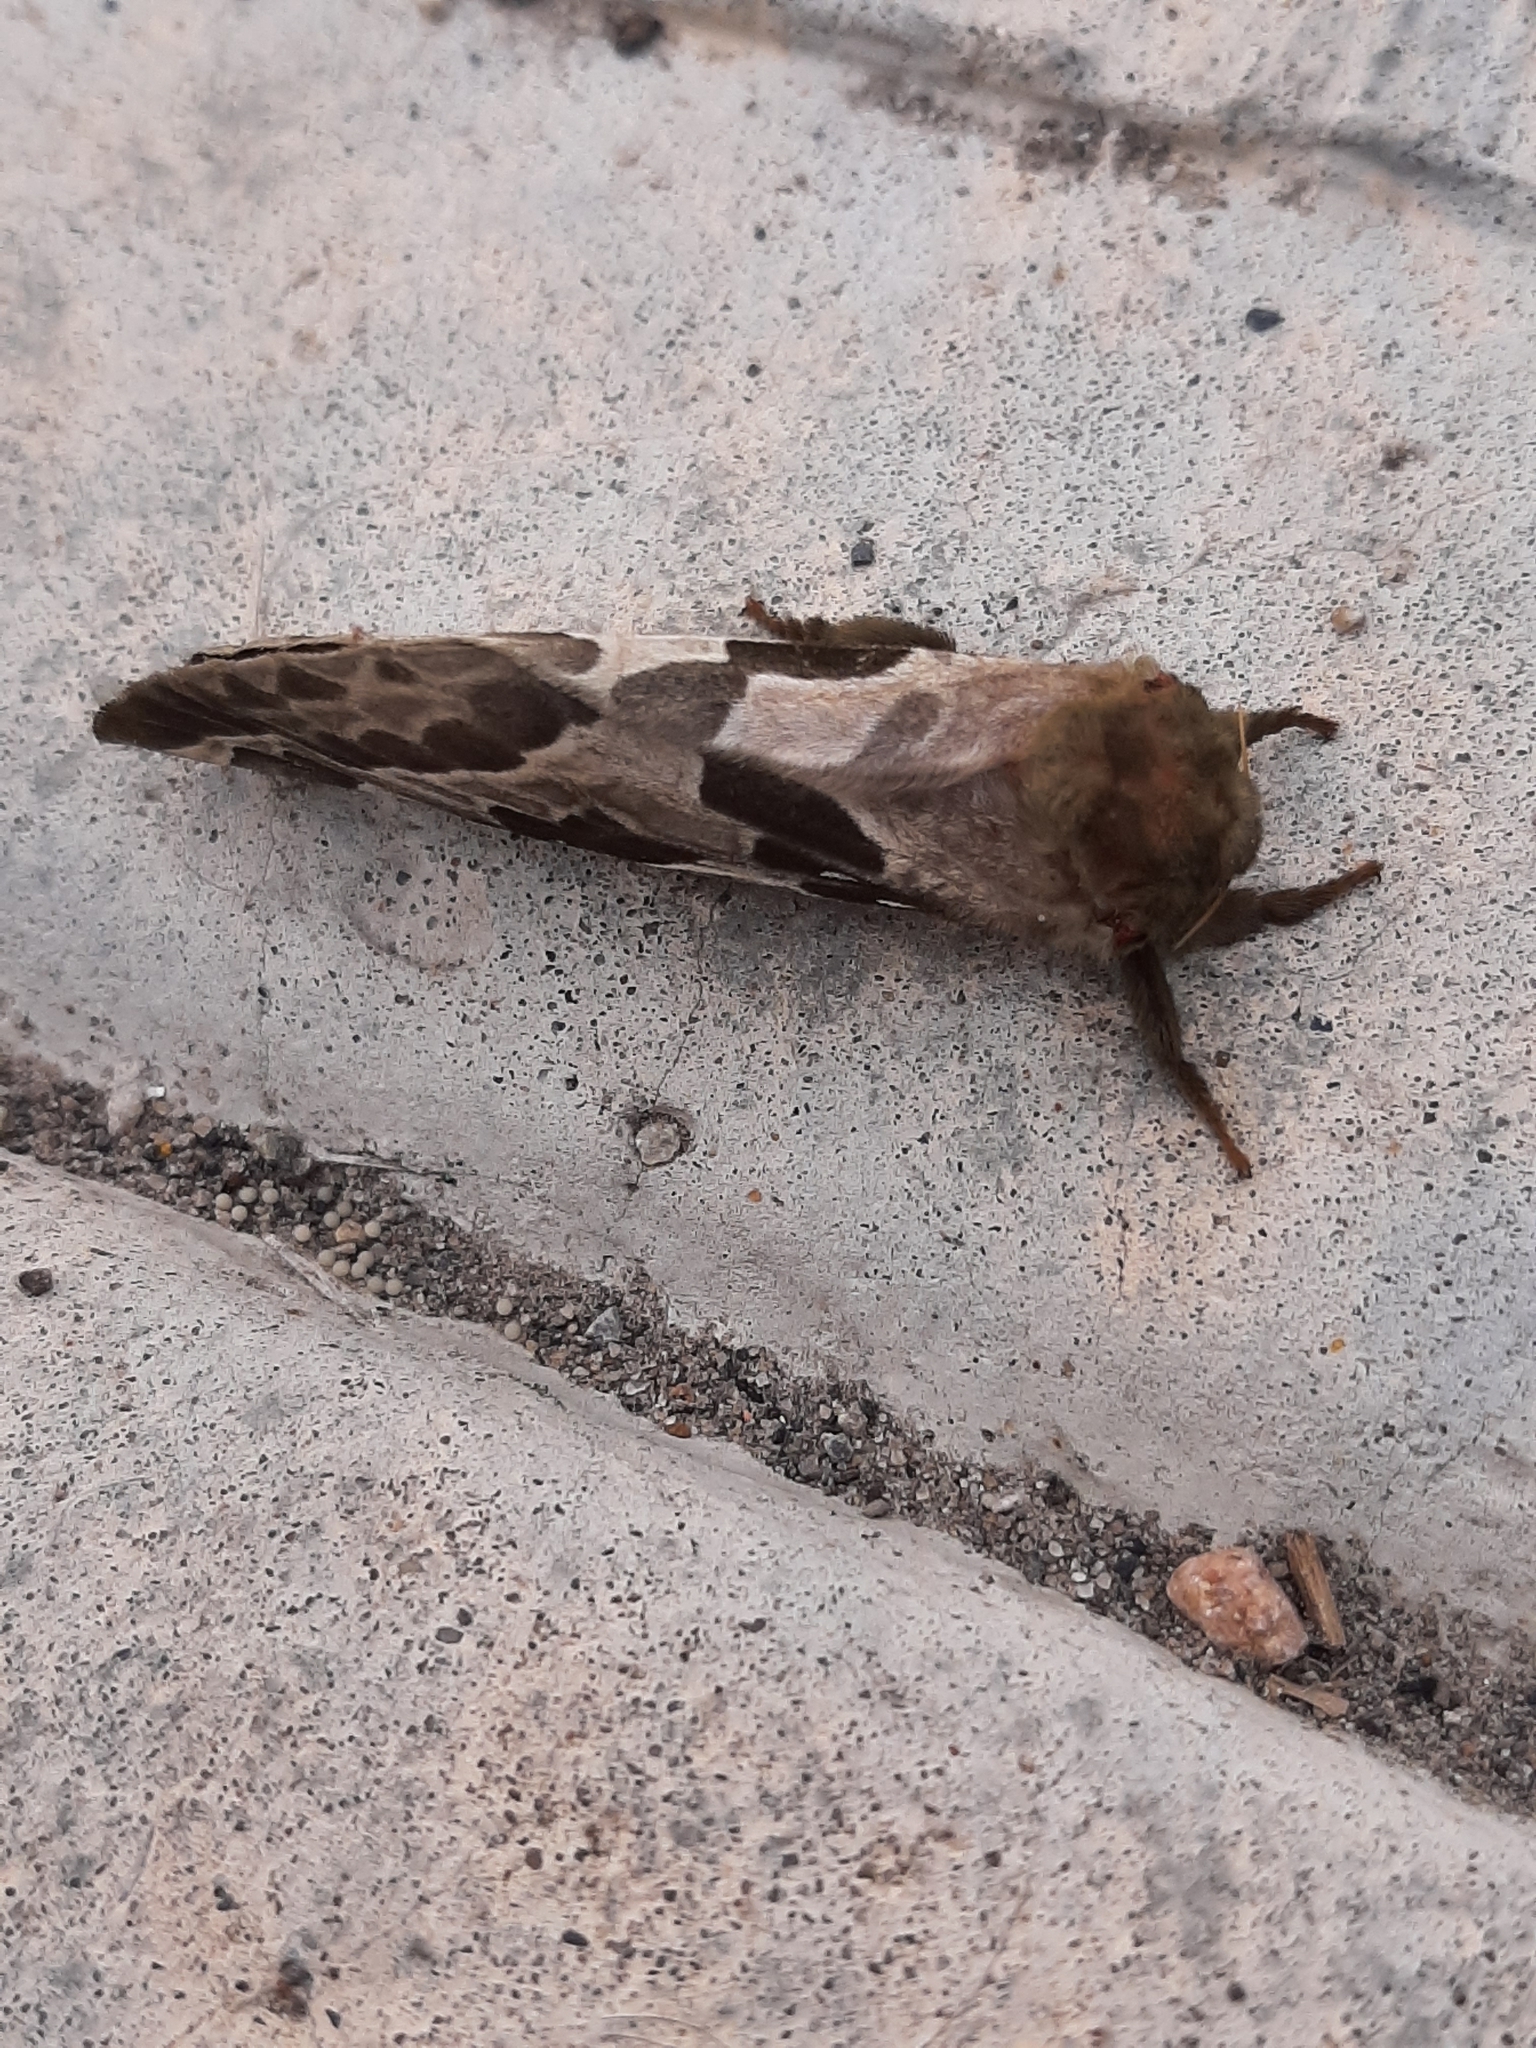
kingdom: Animalia
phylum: Arthropoda
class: Insecta
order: Lepidoptera
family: Hepialidae
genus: Sthenopis
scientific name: Sthenopis purpurascens
